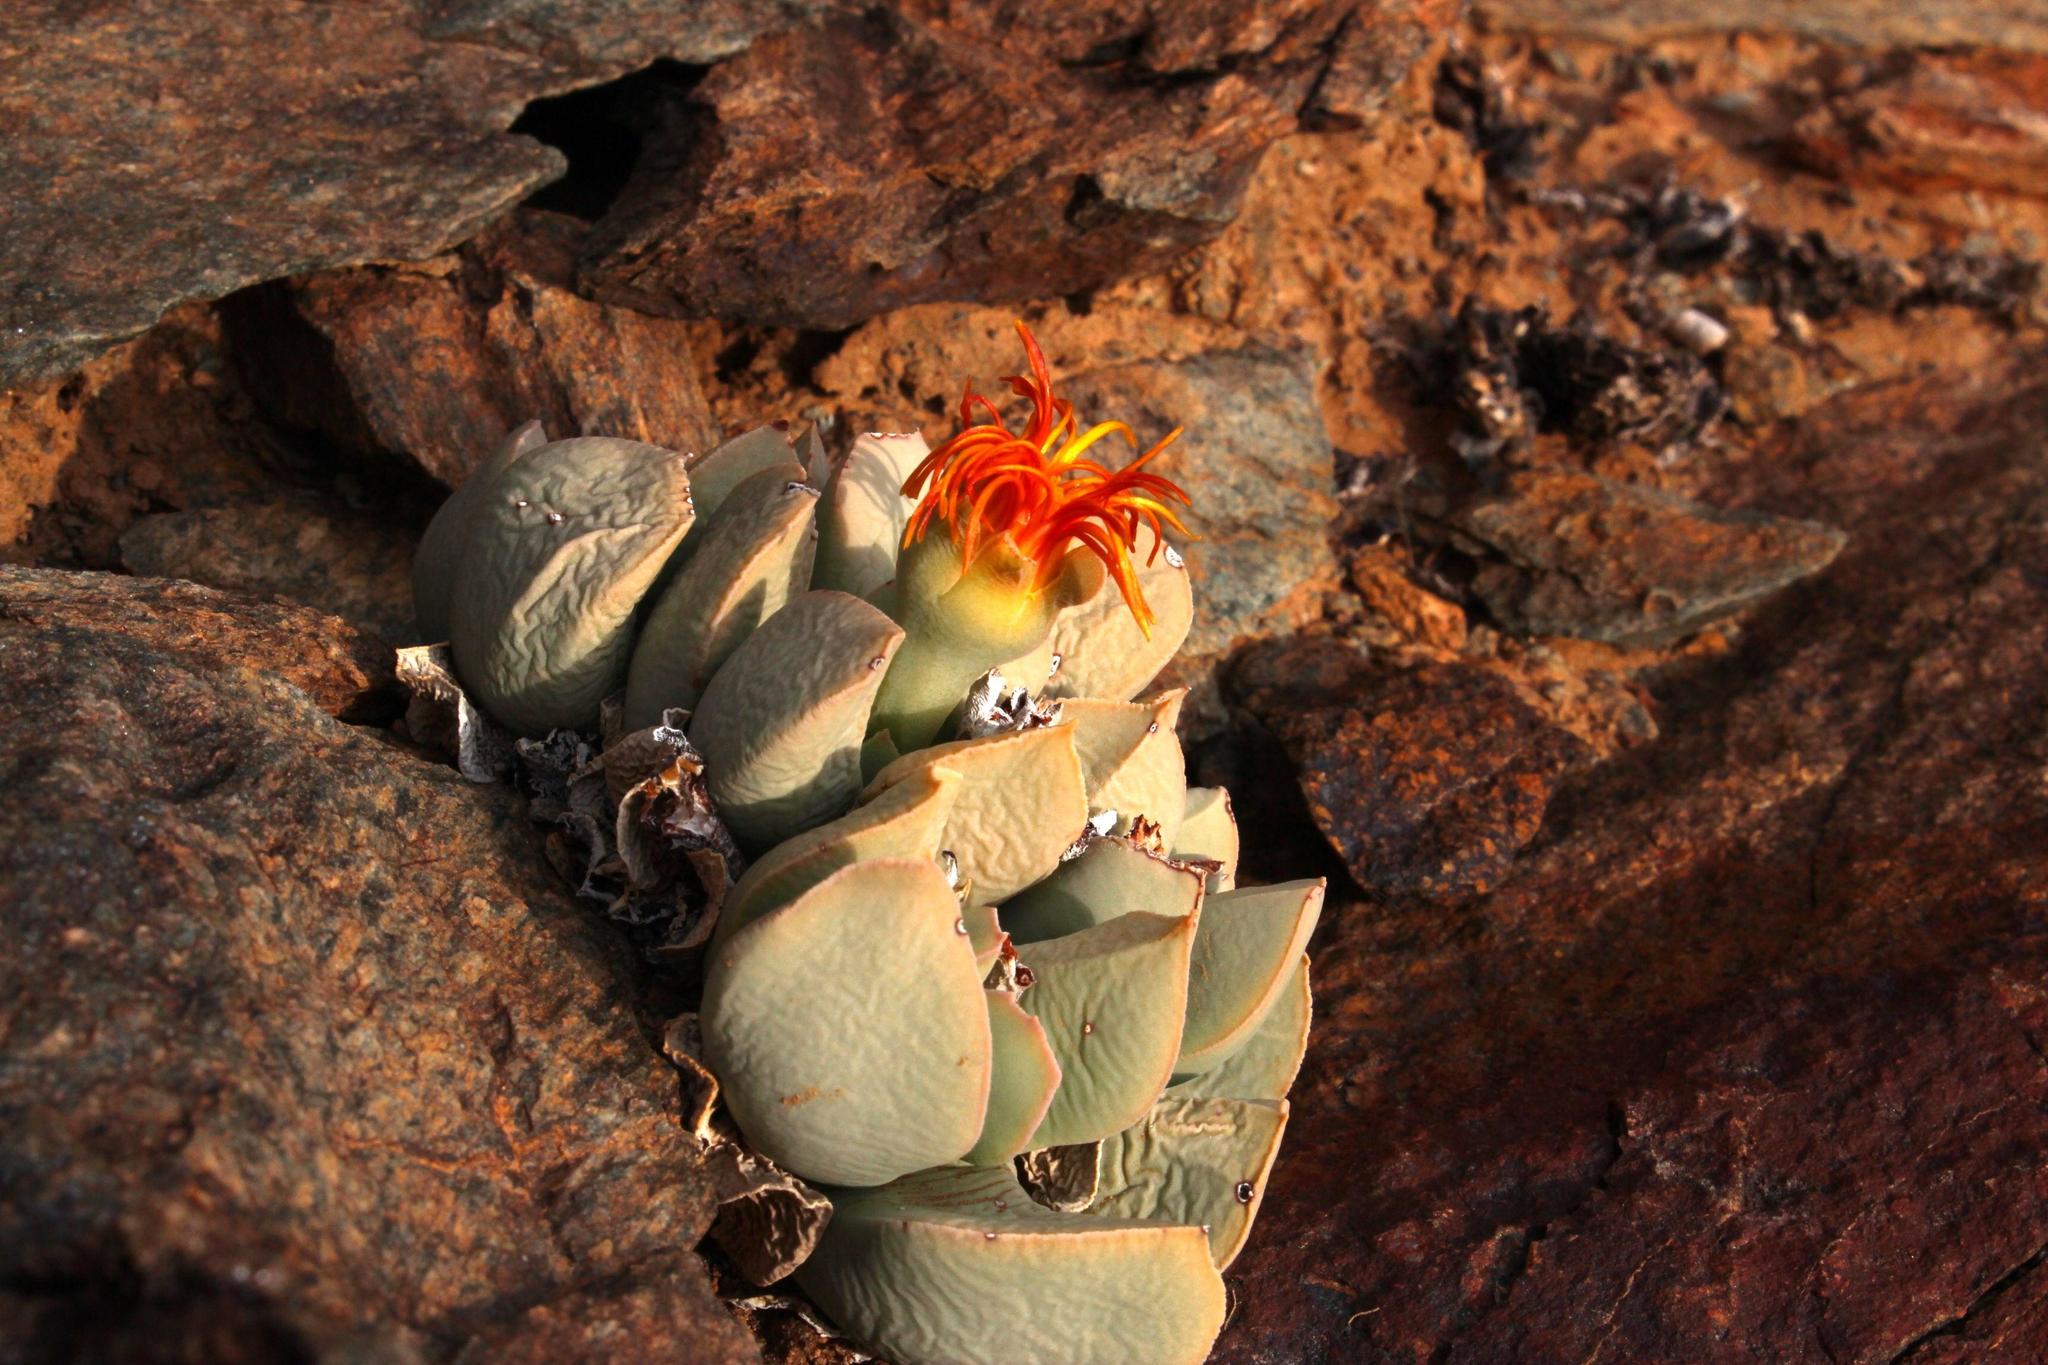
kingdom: Plantae
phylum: Tracheophyta
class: Magnoliopsida
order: Caryophyllales
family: Aizoaceae
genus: Schwantesia
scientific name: Schwantesia herrei
